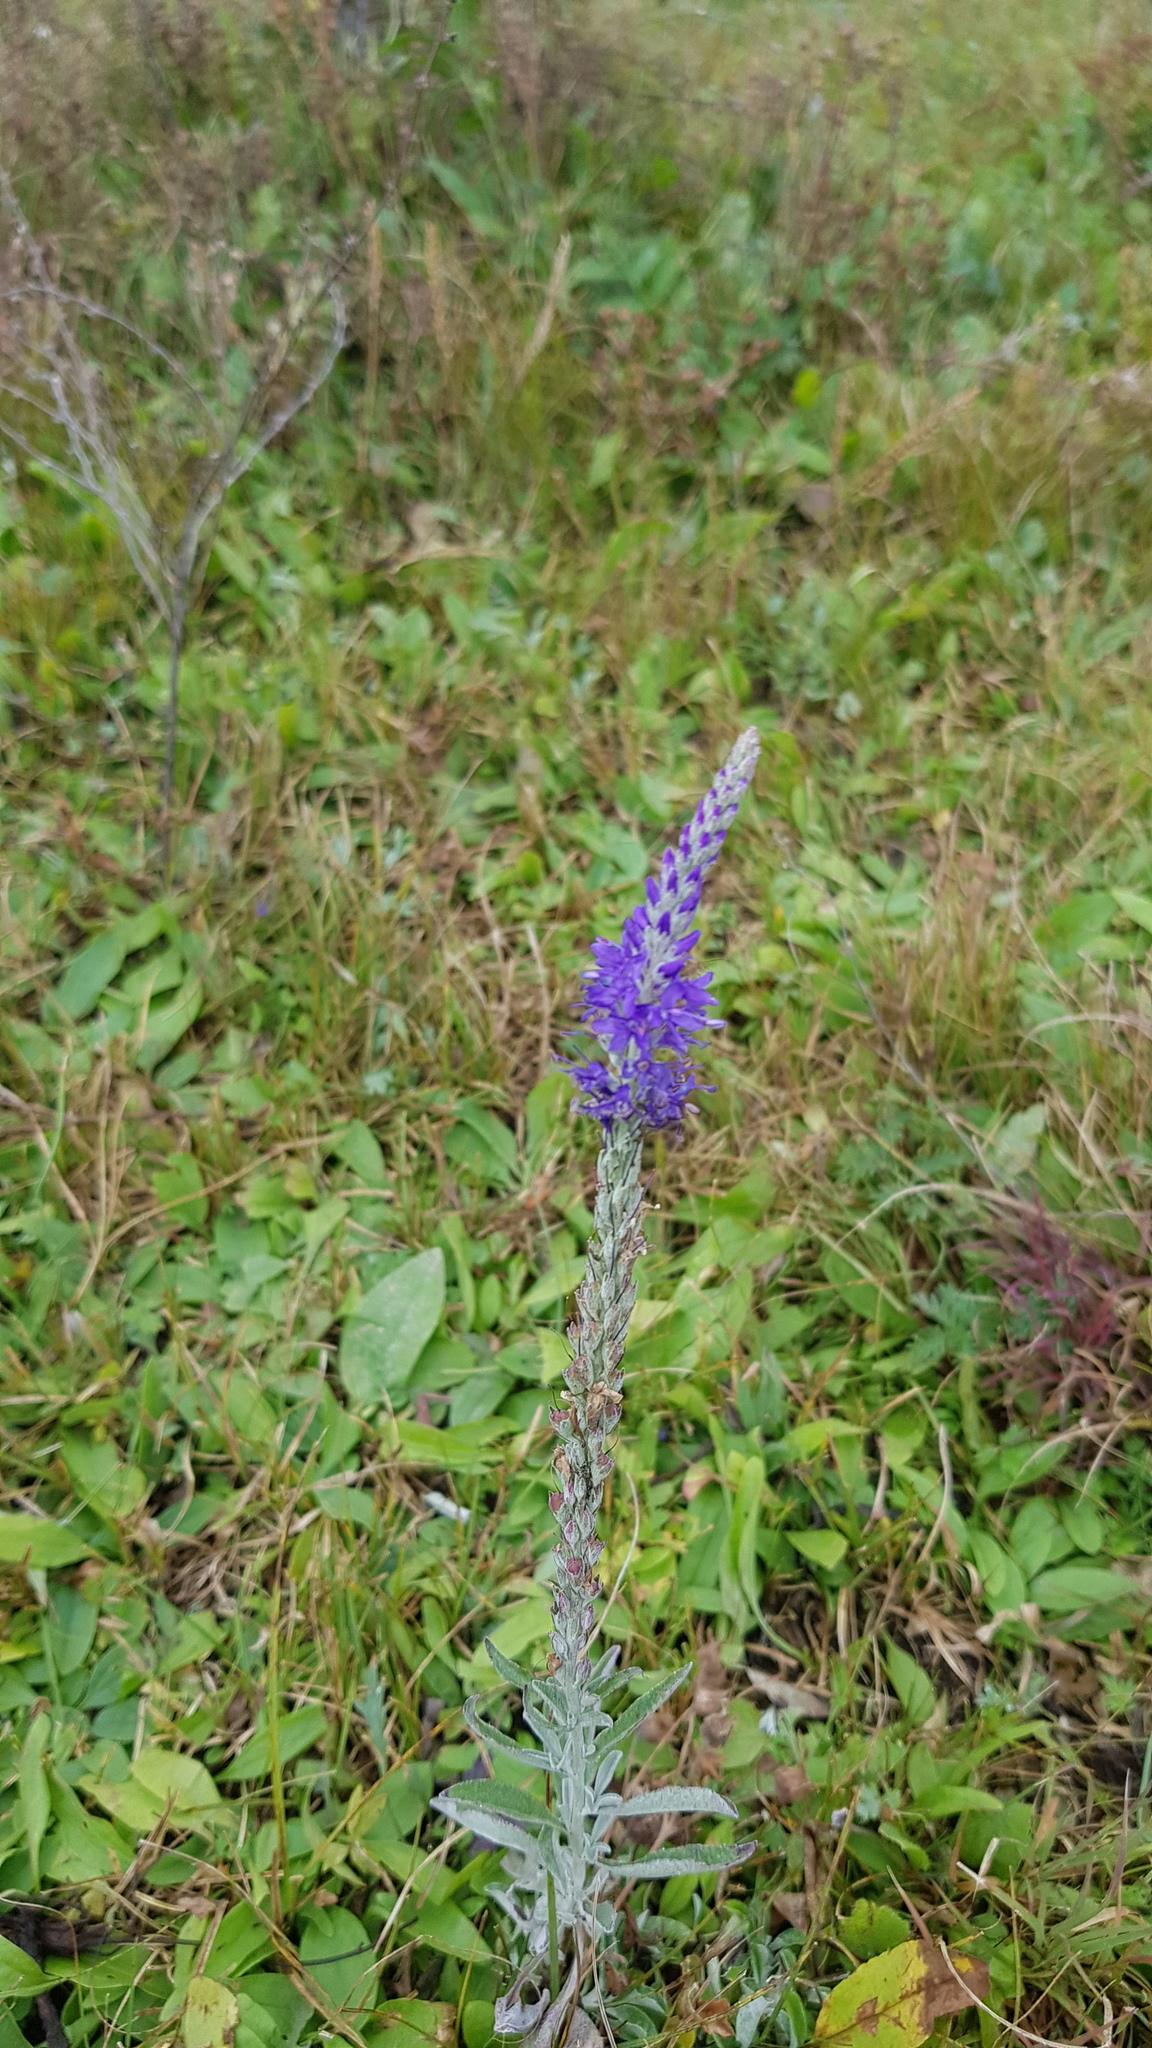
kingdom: Plantae
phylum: Tracheophyta
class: Magnoliopsida
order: Lamiales
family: Plantaginaceae
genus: Veronica
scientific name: Veronica incana
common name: Silver speedwell
